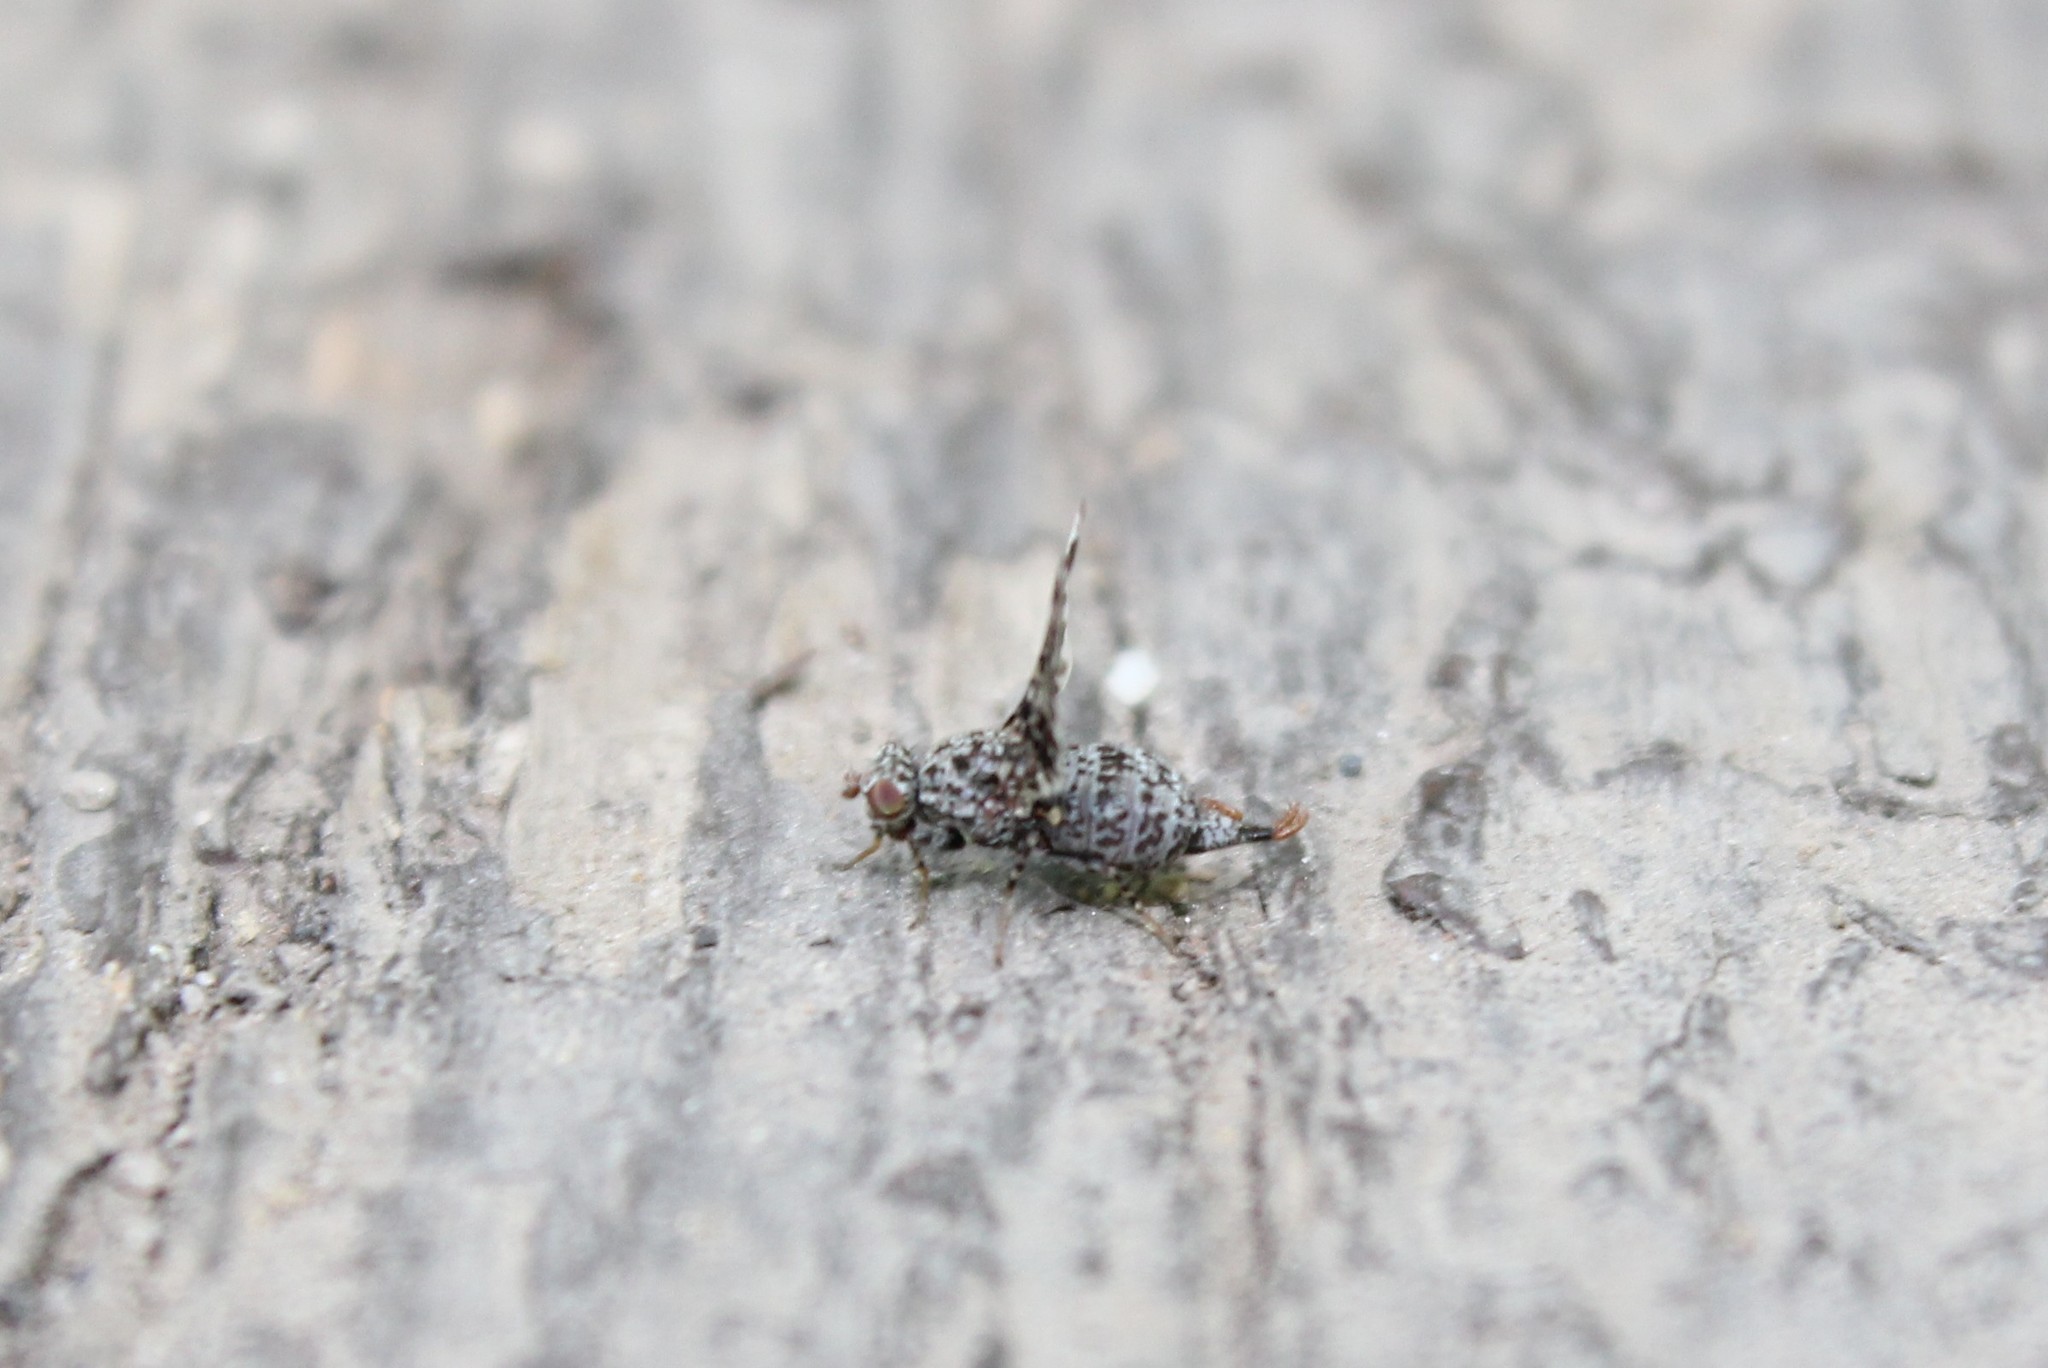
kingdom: Animalia
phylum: Arthropoda
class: Insecta
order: Diptera
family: Ulidiidae
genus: Callopistromyia
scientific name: Callopistromyia annulipes
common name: Peacock fly
